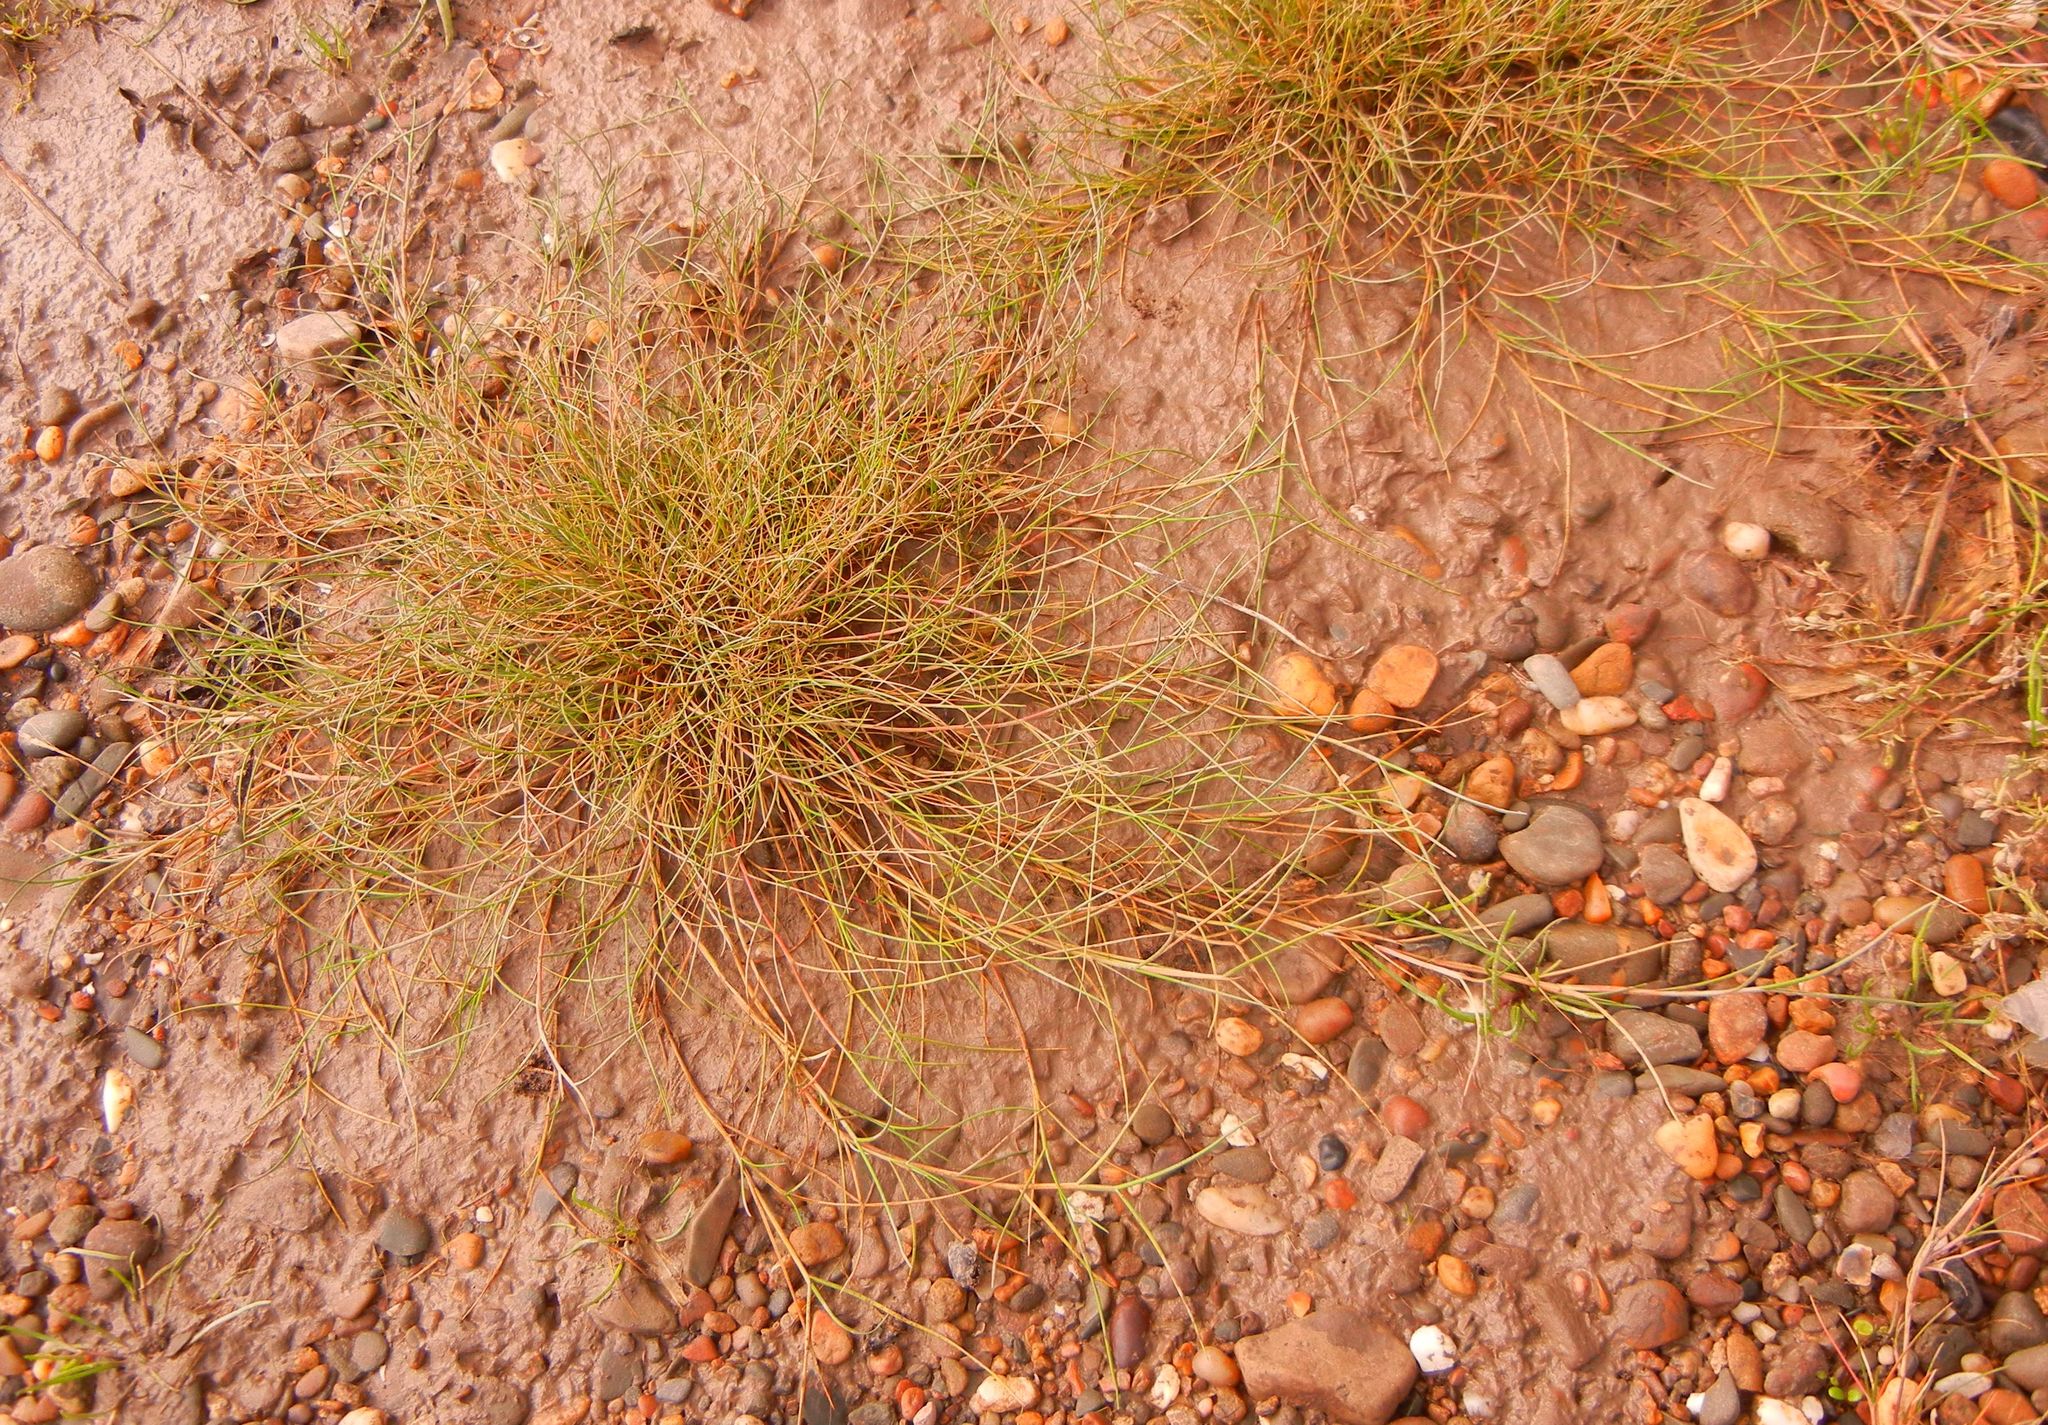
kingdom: Plantae
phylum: Tracheophyta
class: Liliopsida
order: Poales
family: Poaceae
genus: Puccinellia
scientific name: Puccinellia maritima
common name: Common saltmarsh grass
